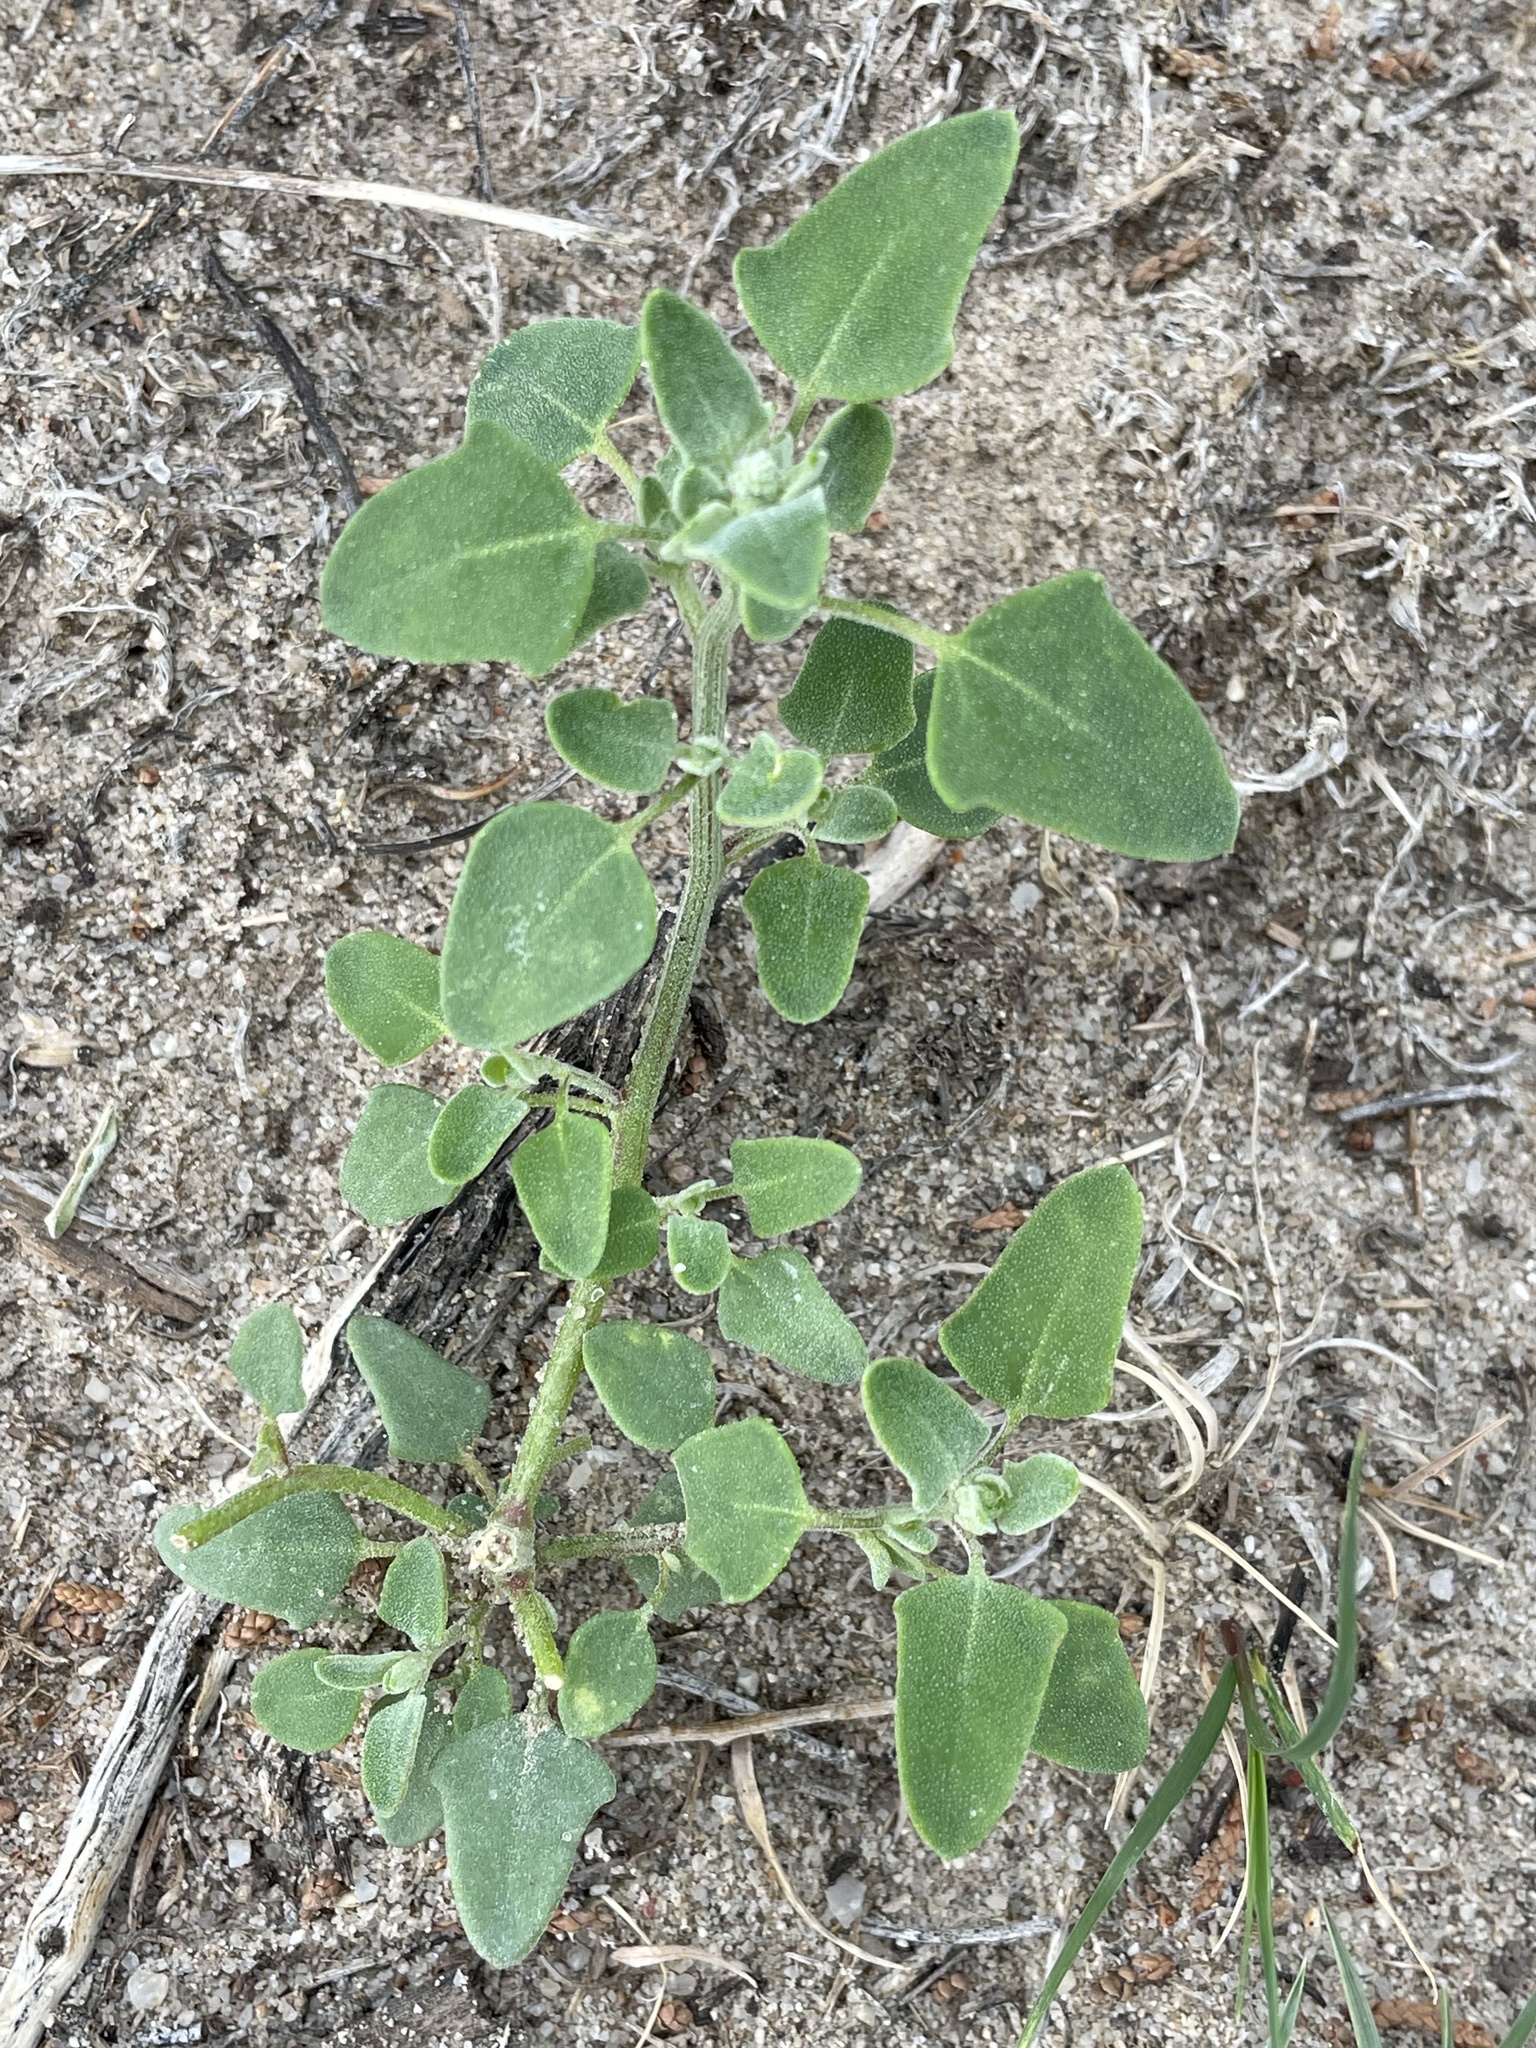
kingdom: Plantae
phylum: Tracheophyta
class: Magnoliopsida
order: Caryophyllales
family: Amaranthaceae
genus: Chenopodium
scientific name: Chenopodium incanum
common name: Hoary goosefoot
